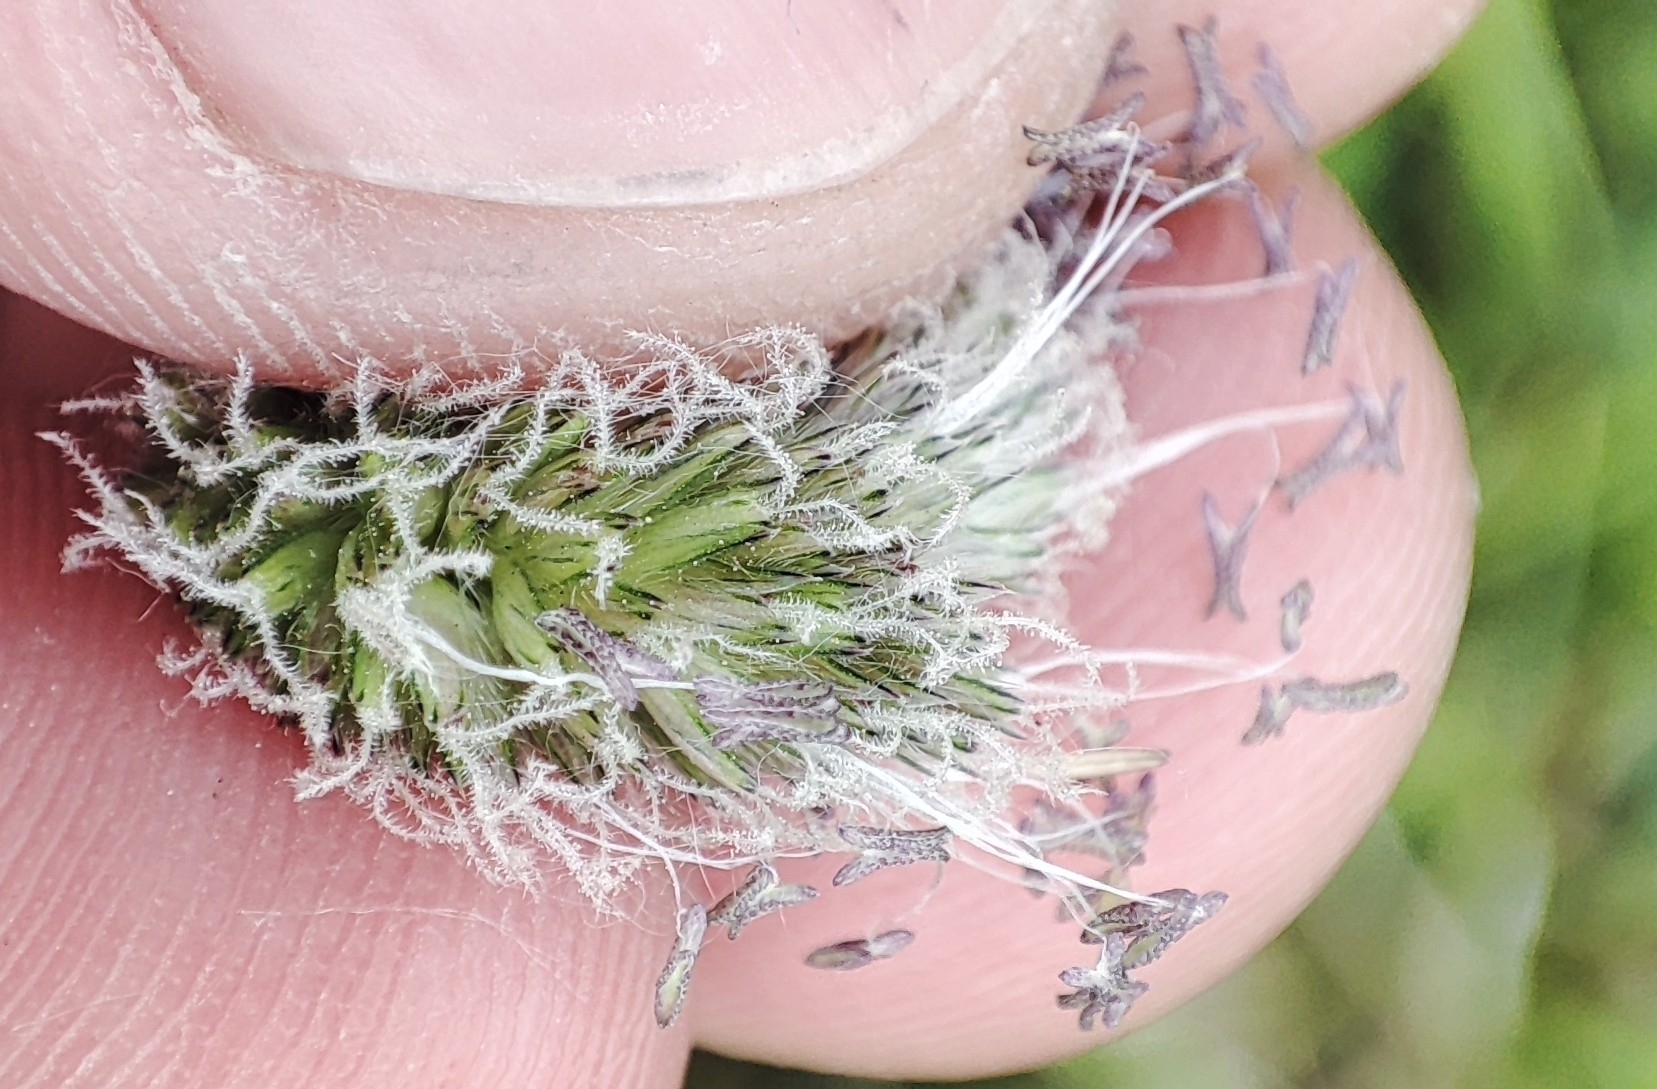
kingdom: Plantae
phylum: Tracheophyta
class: Liliopsida
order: Poales
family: Poaceae
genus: Alopecurus
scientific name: Alopecurus pratensis
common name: Meadow foxtail
